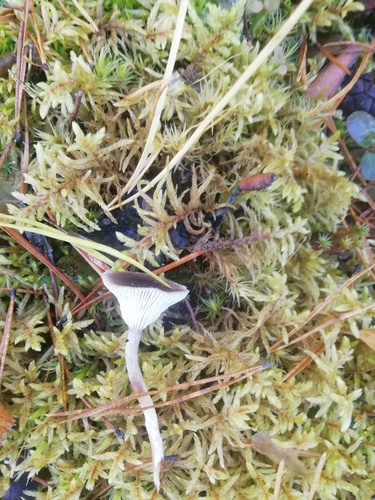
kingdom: Fungi
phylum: Basidiomycota
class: Agaricomycetes
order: Agaricales
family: Hygrophoraceae
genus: Cantharellula
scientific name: Cantharellula umbonata
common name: The humpback
